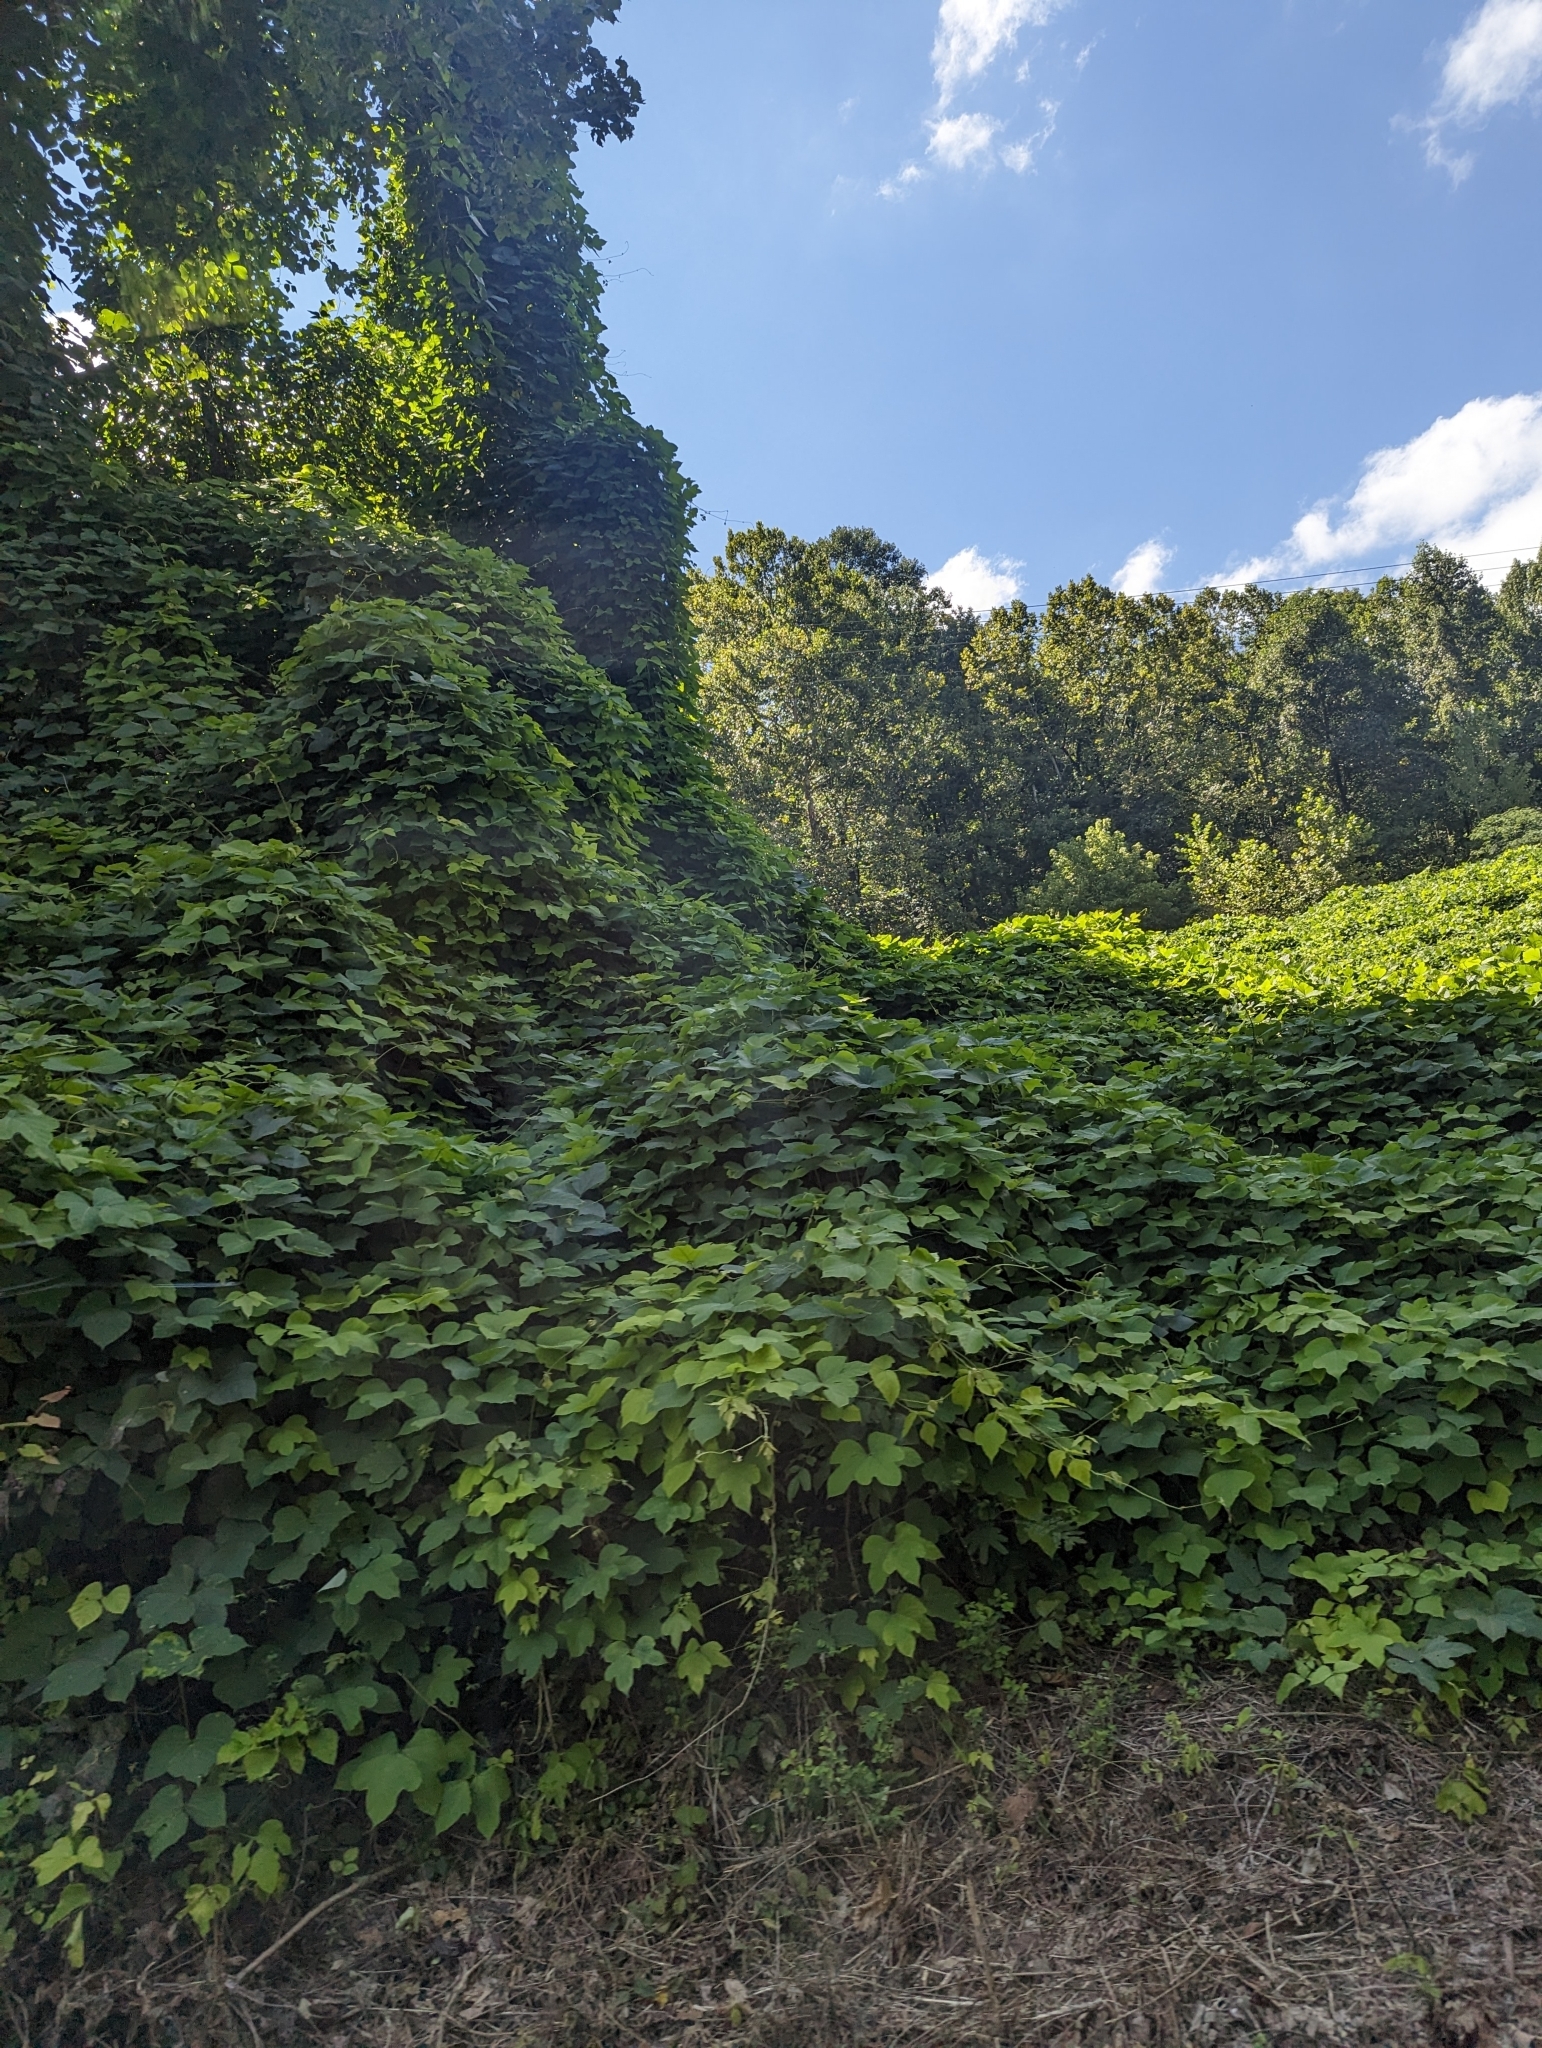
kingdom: Plantae
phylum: Tracheophyta
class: Magnoliopsida
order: Fabales
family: Fabaceae
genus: Pueraria
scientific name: Pueraria montana
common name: Kudzu
